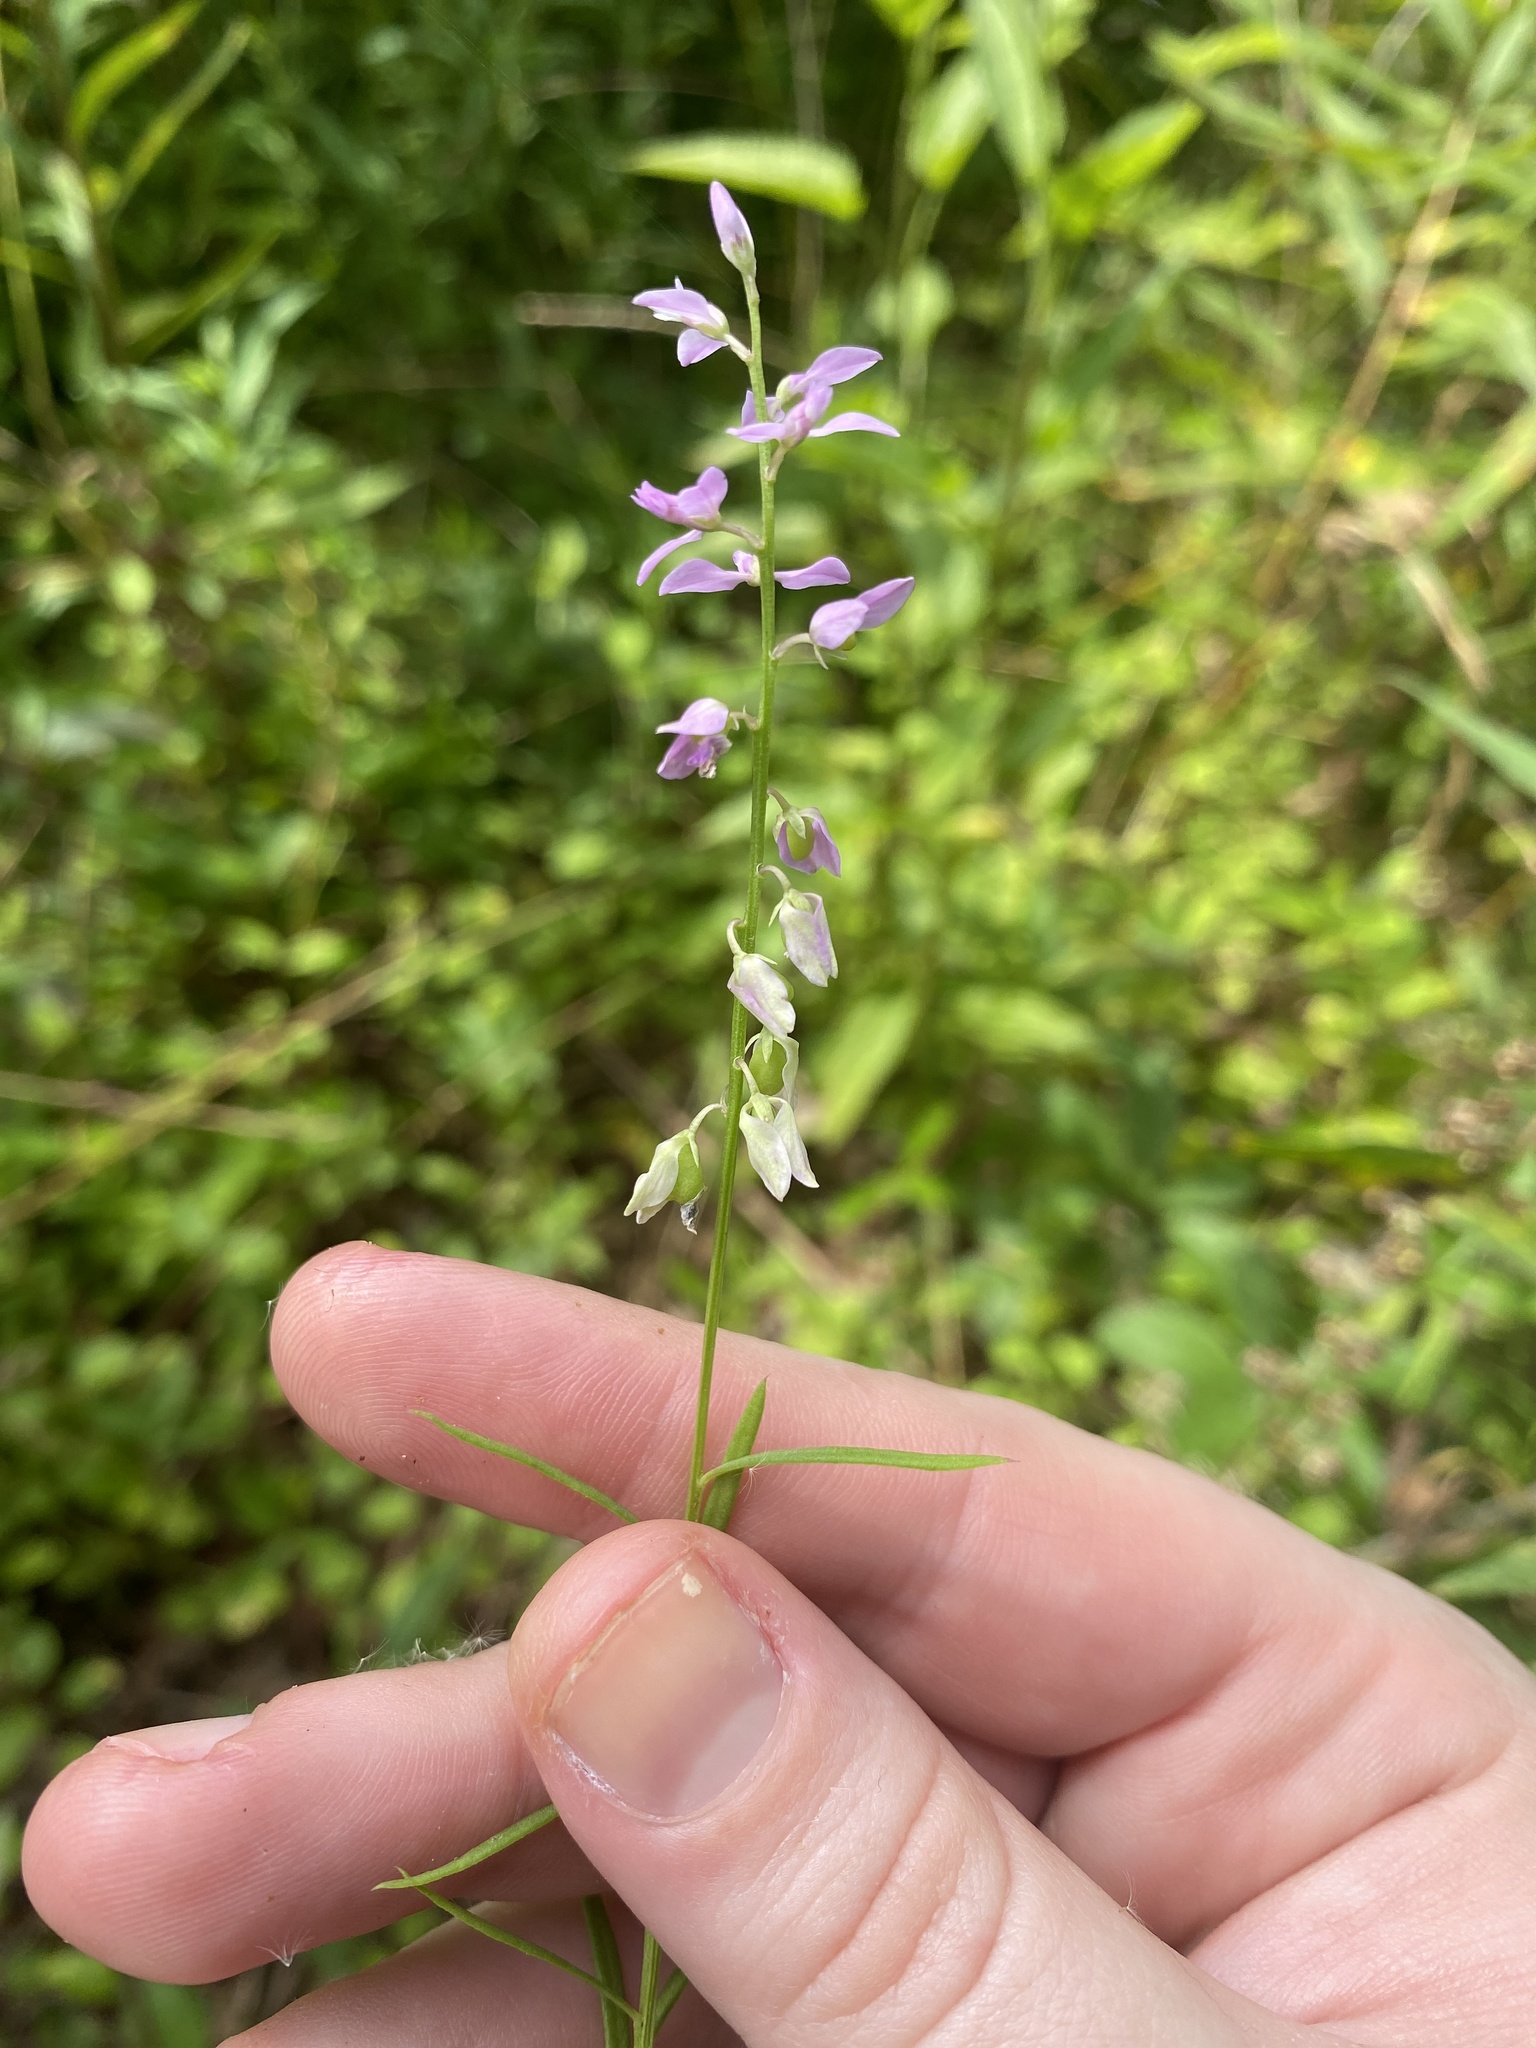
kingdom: Plantae
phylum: Tracheophyta
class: Magnoliopsida
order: Fabales
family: Polygalaceae
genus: Polygala
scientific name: Polygala polygama
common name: Bitter milkwort
